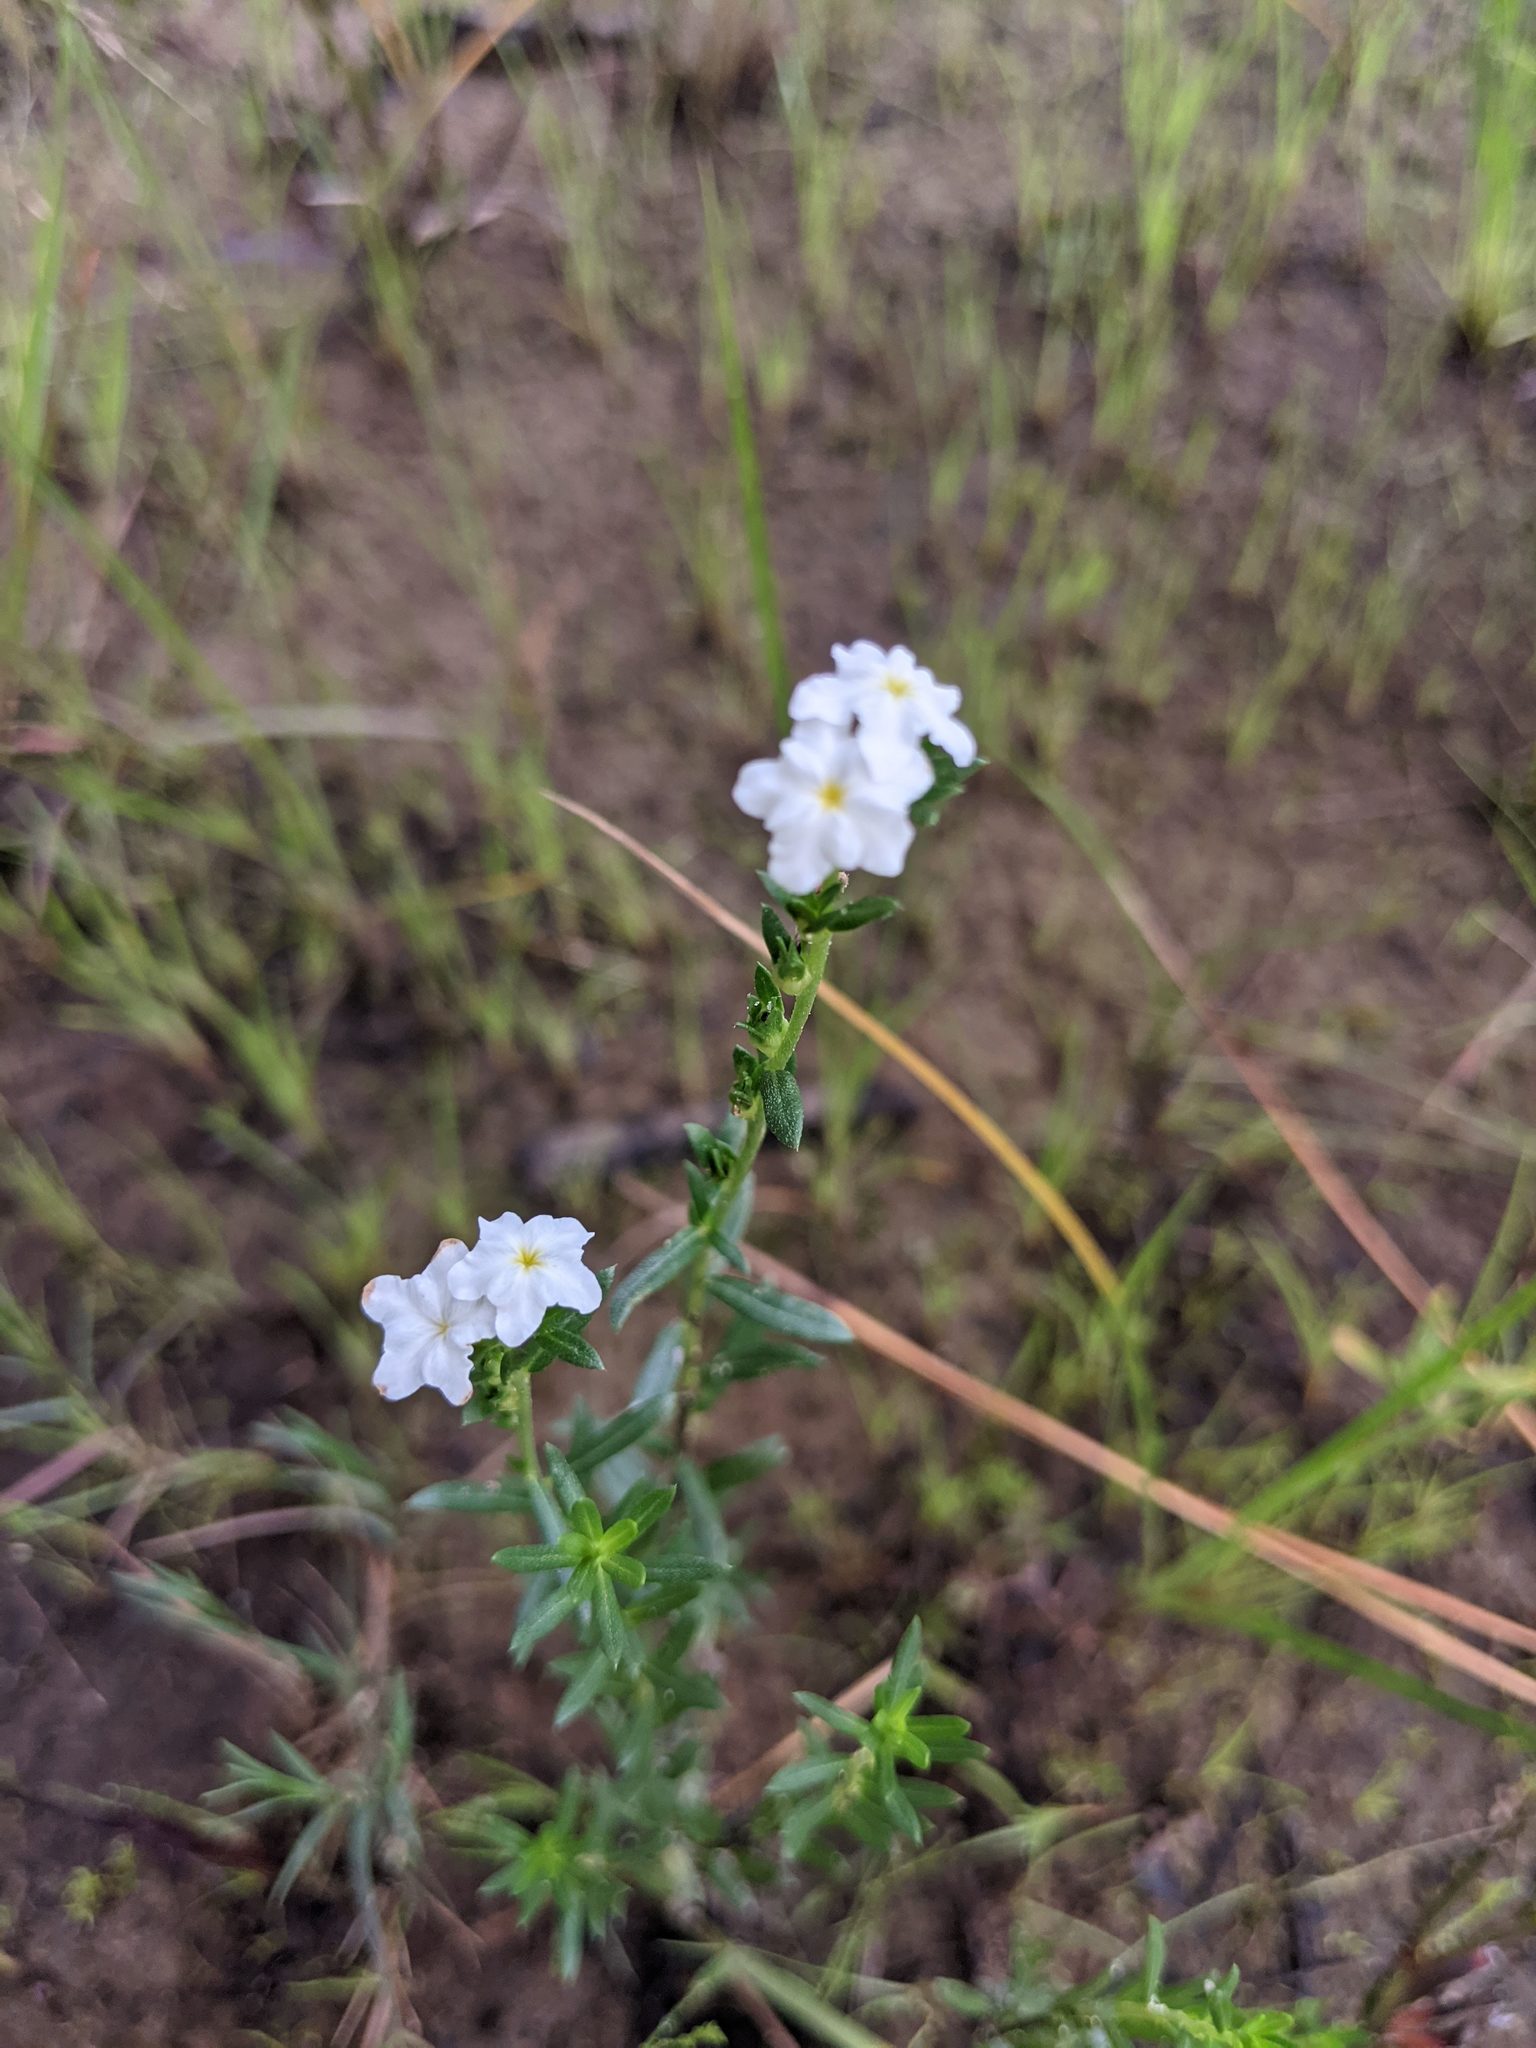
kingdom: Plantae
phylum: Tracheophyta
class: Magnoliopsida
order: Boraginales
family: Heliotropiaceae
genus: Euploca
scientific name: Euploca polyphylla
